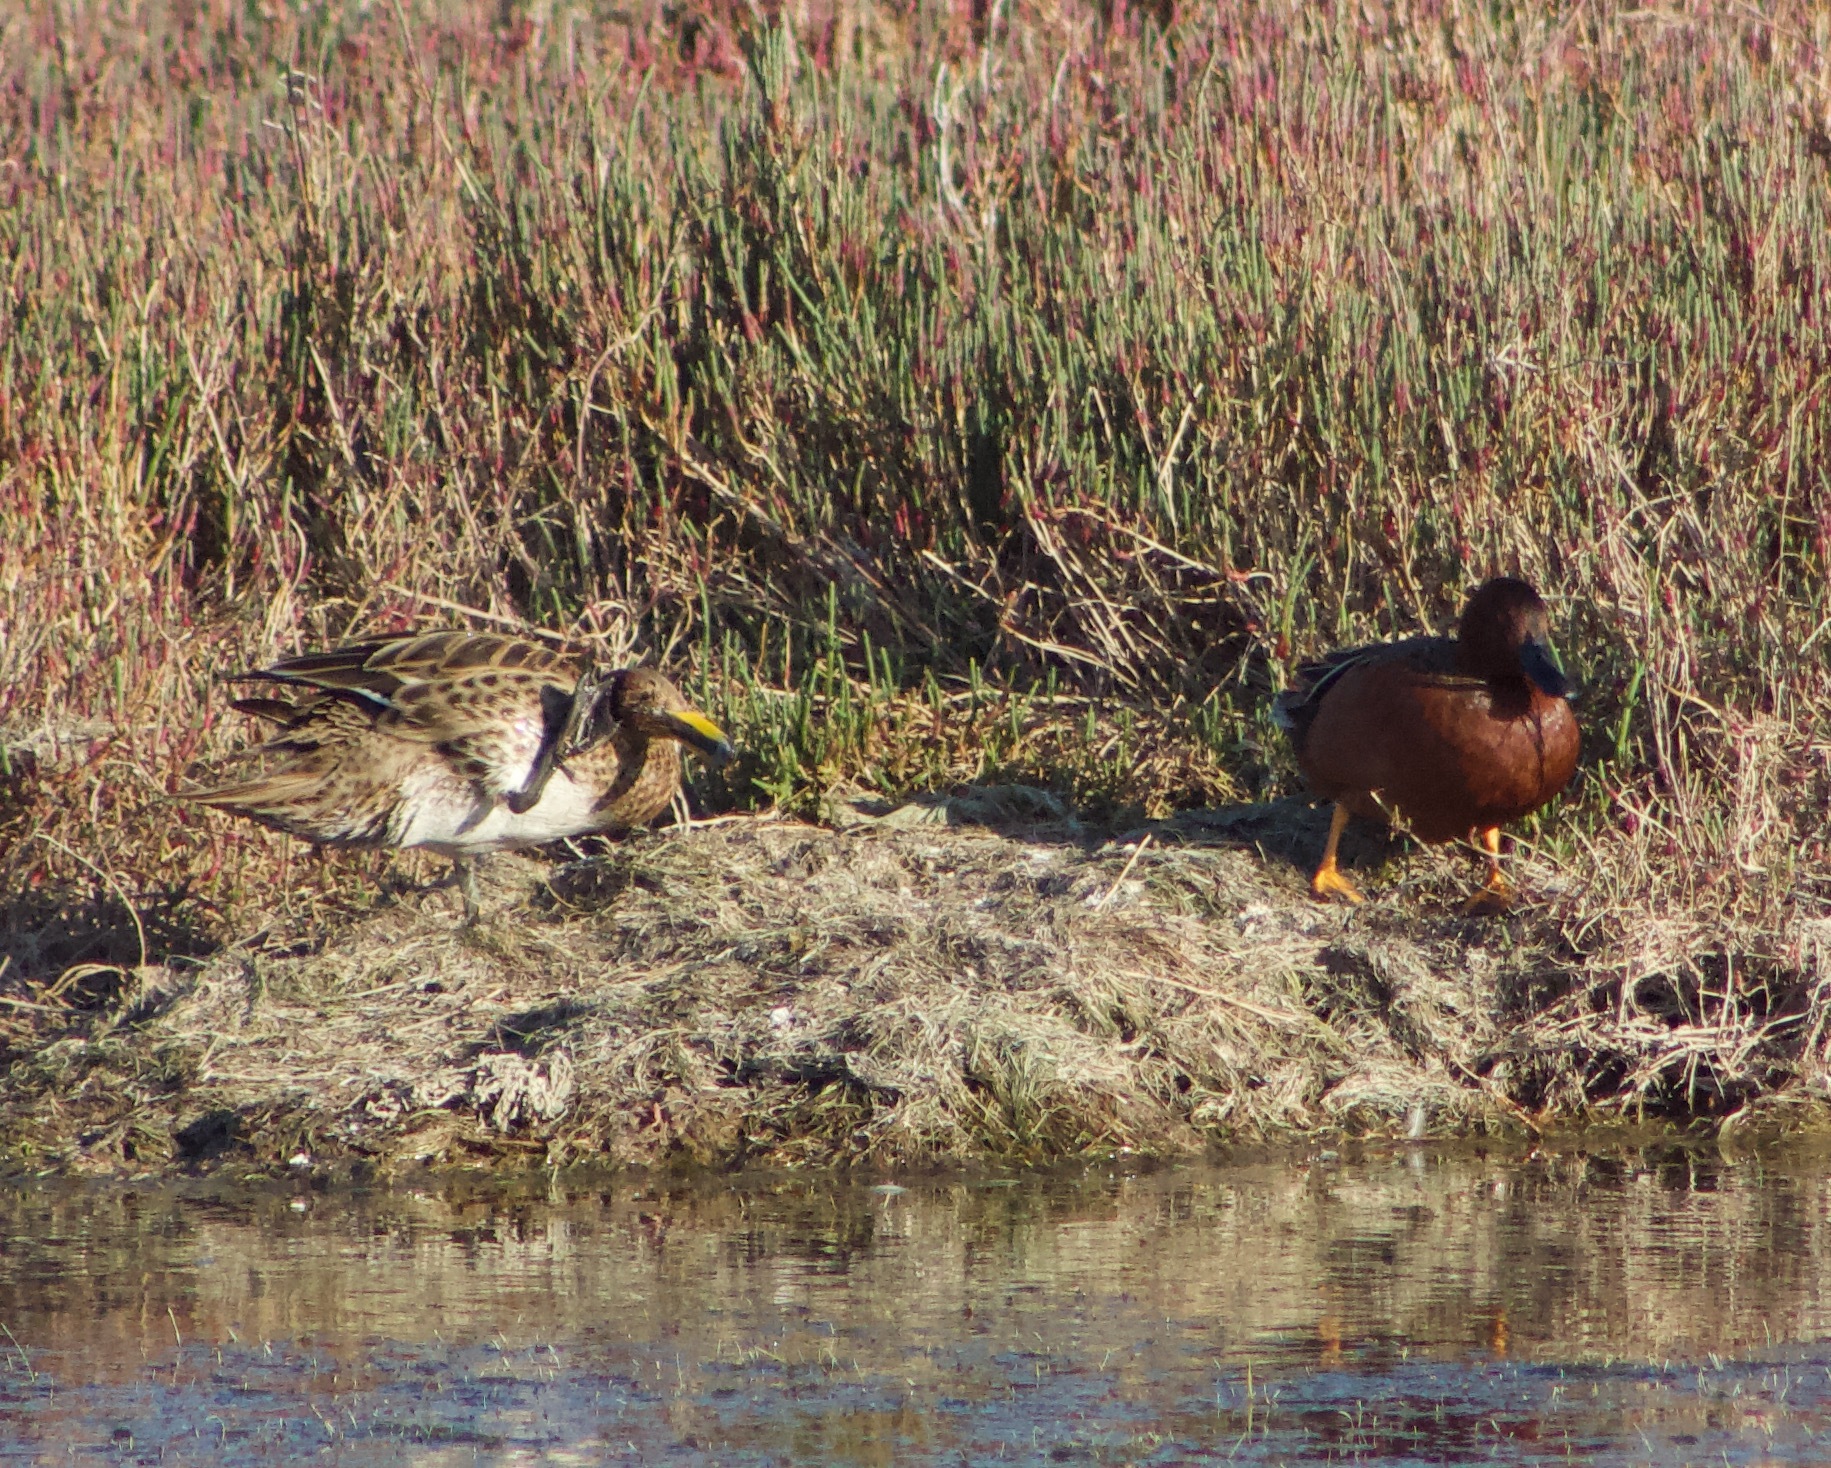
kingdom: Animalia
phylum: Chordata
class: Aves
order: Anseriformes
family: Anatidae
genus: Spatula
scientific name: Spatula cyanoptera
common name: Cinnamon teal
